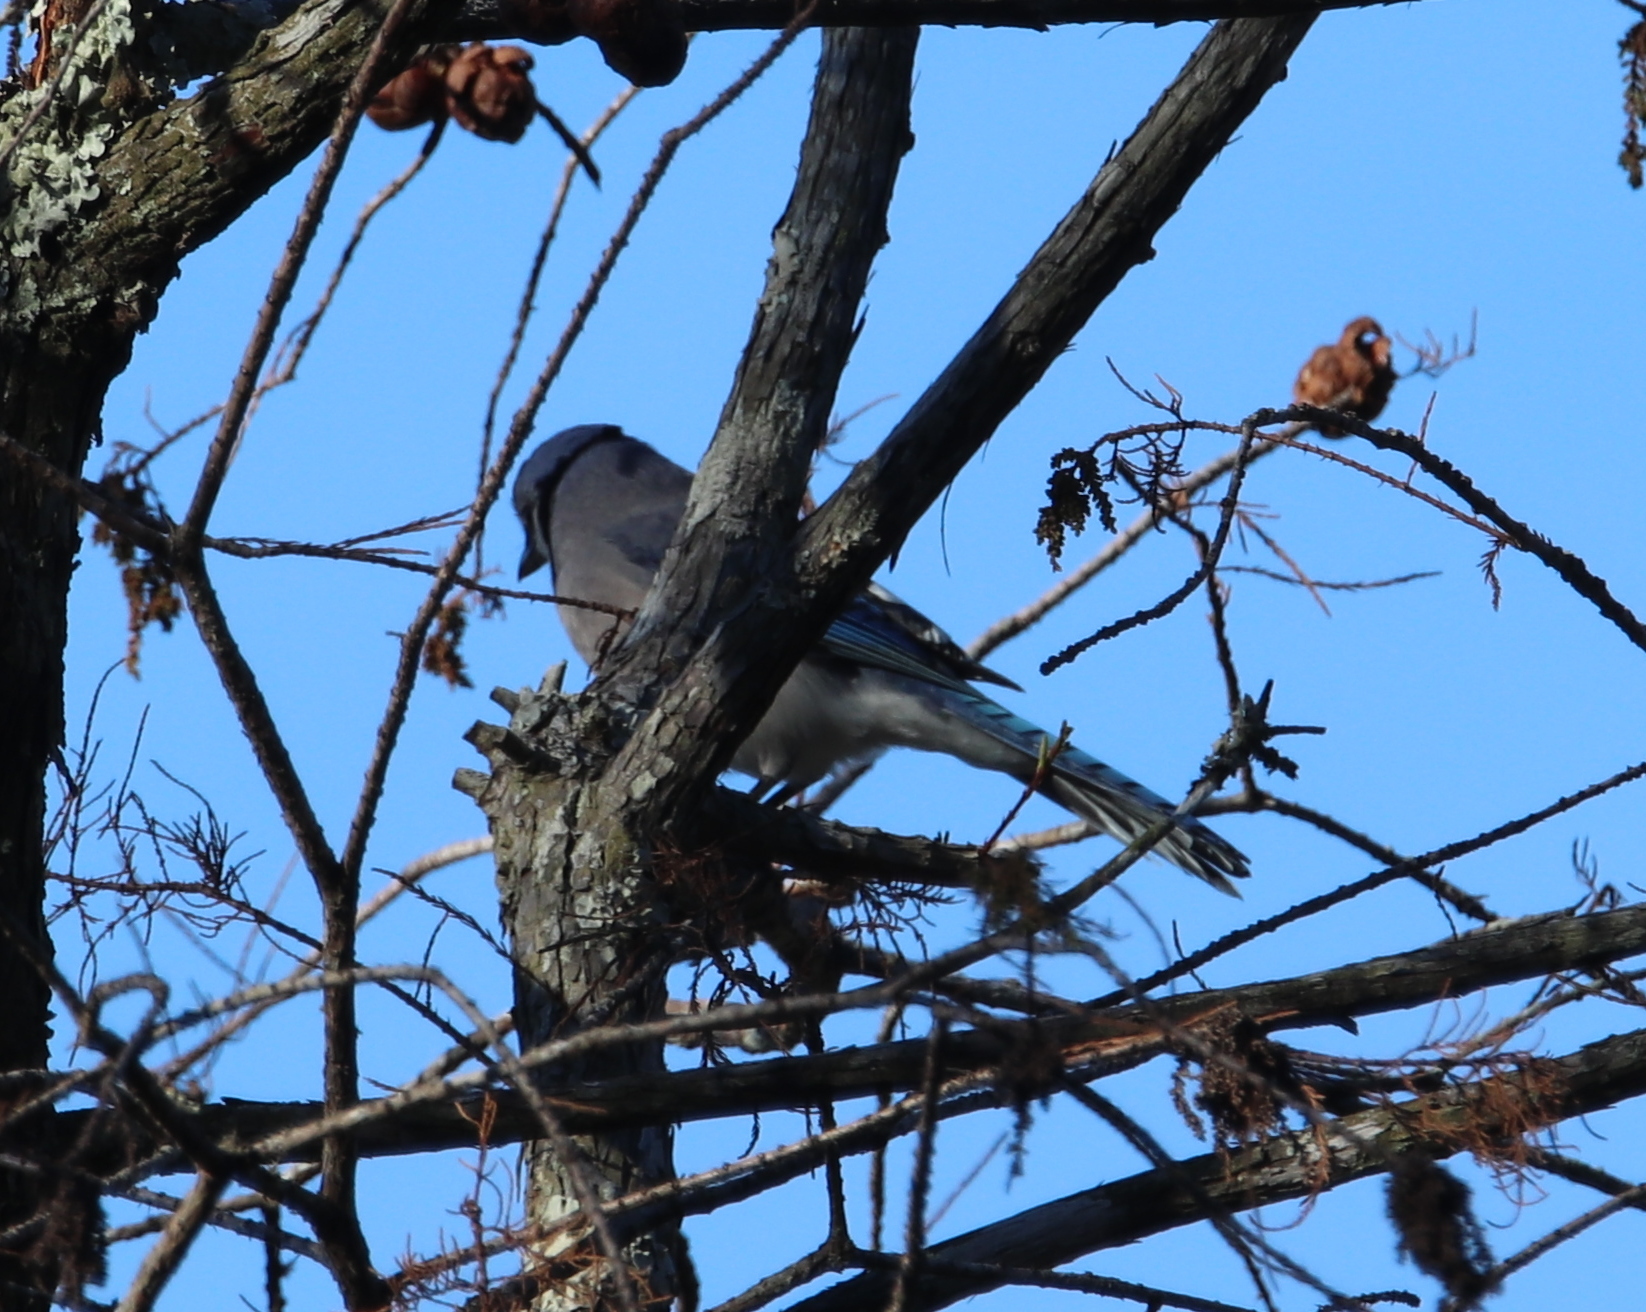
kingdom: Animalia
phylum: Chordata
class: Aves
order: Passeriformes
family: Corvidae
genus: Cyanocitta
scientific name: Cyanocitta cristata
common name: Blue jay
